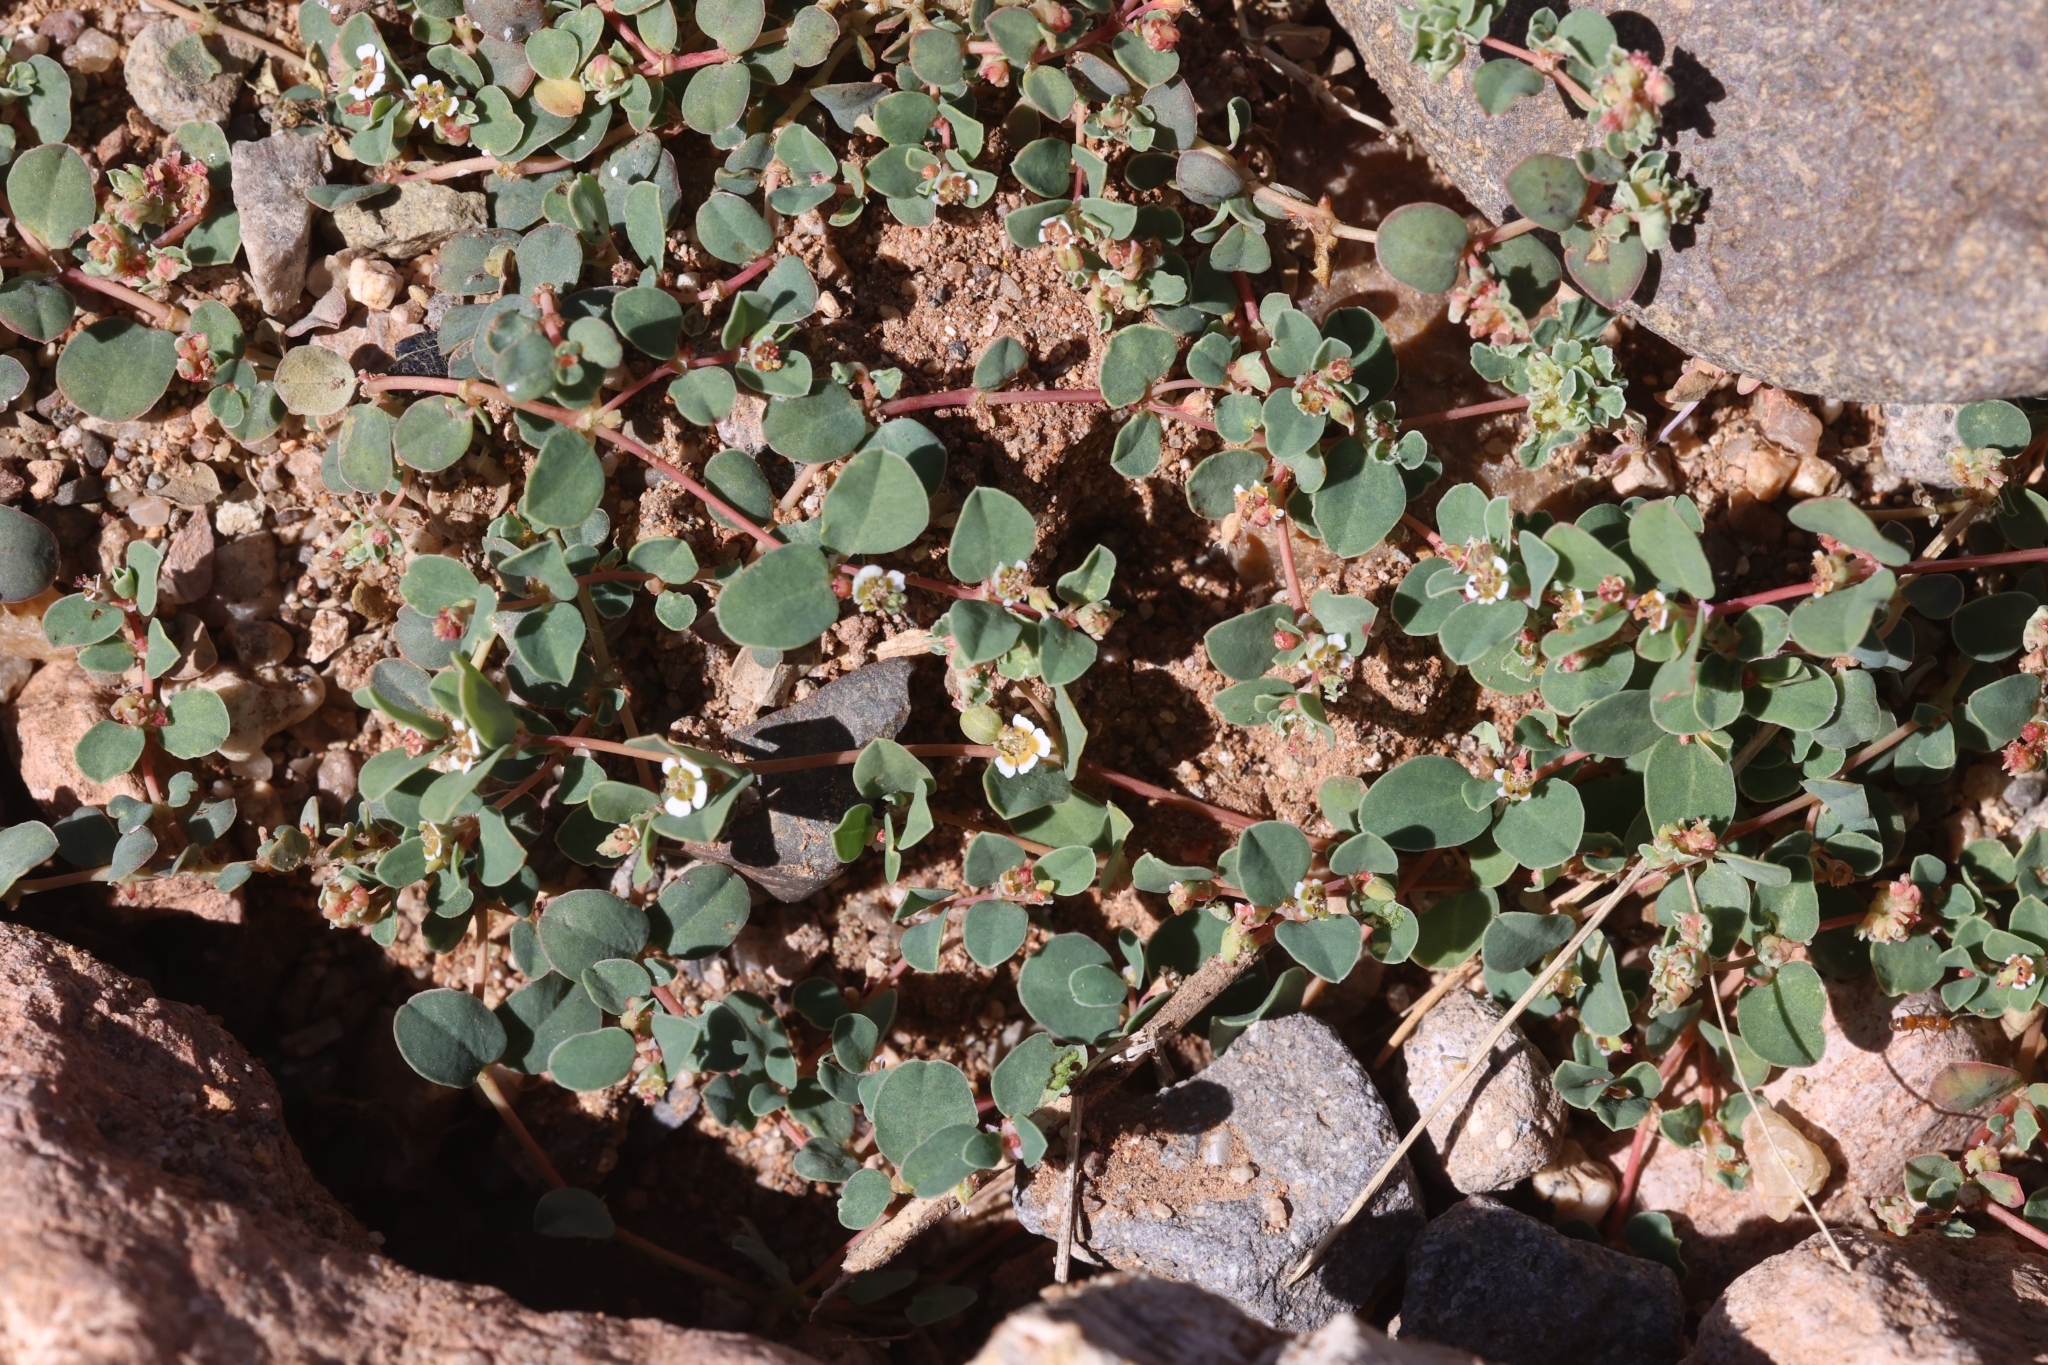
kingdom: Plantae
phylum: Tracheophyta
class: Magnoliopsida
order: Malpighiales
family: Euphorbiaceae
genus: Euphorbia
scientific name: Euphorbia albomarginata
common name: Whitemargin sandmat
